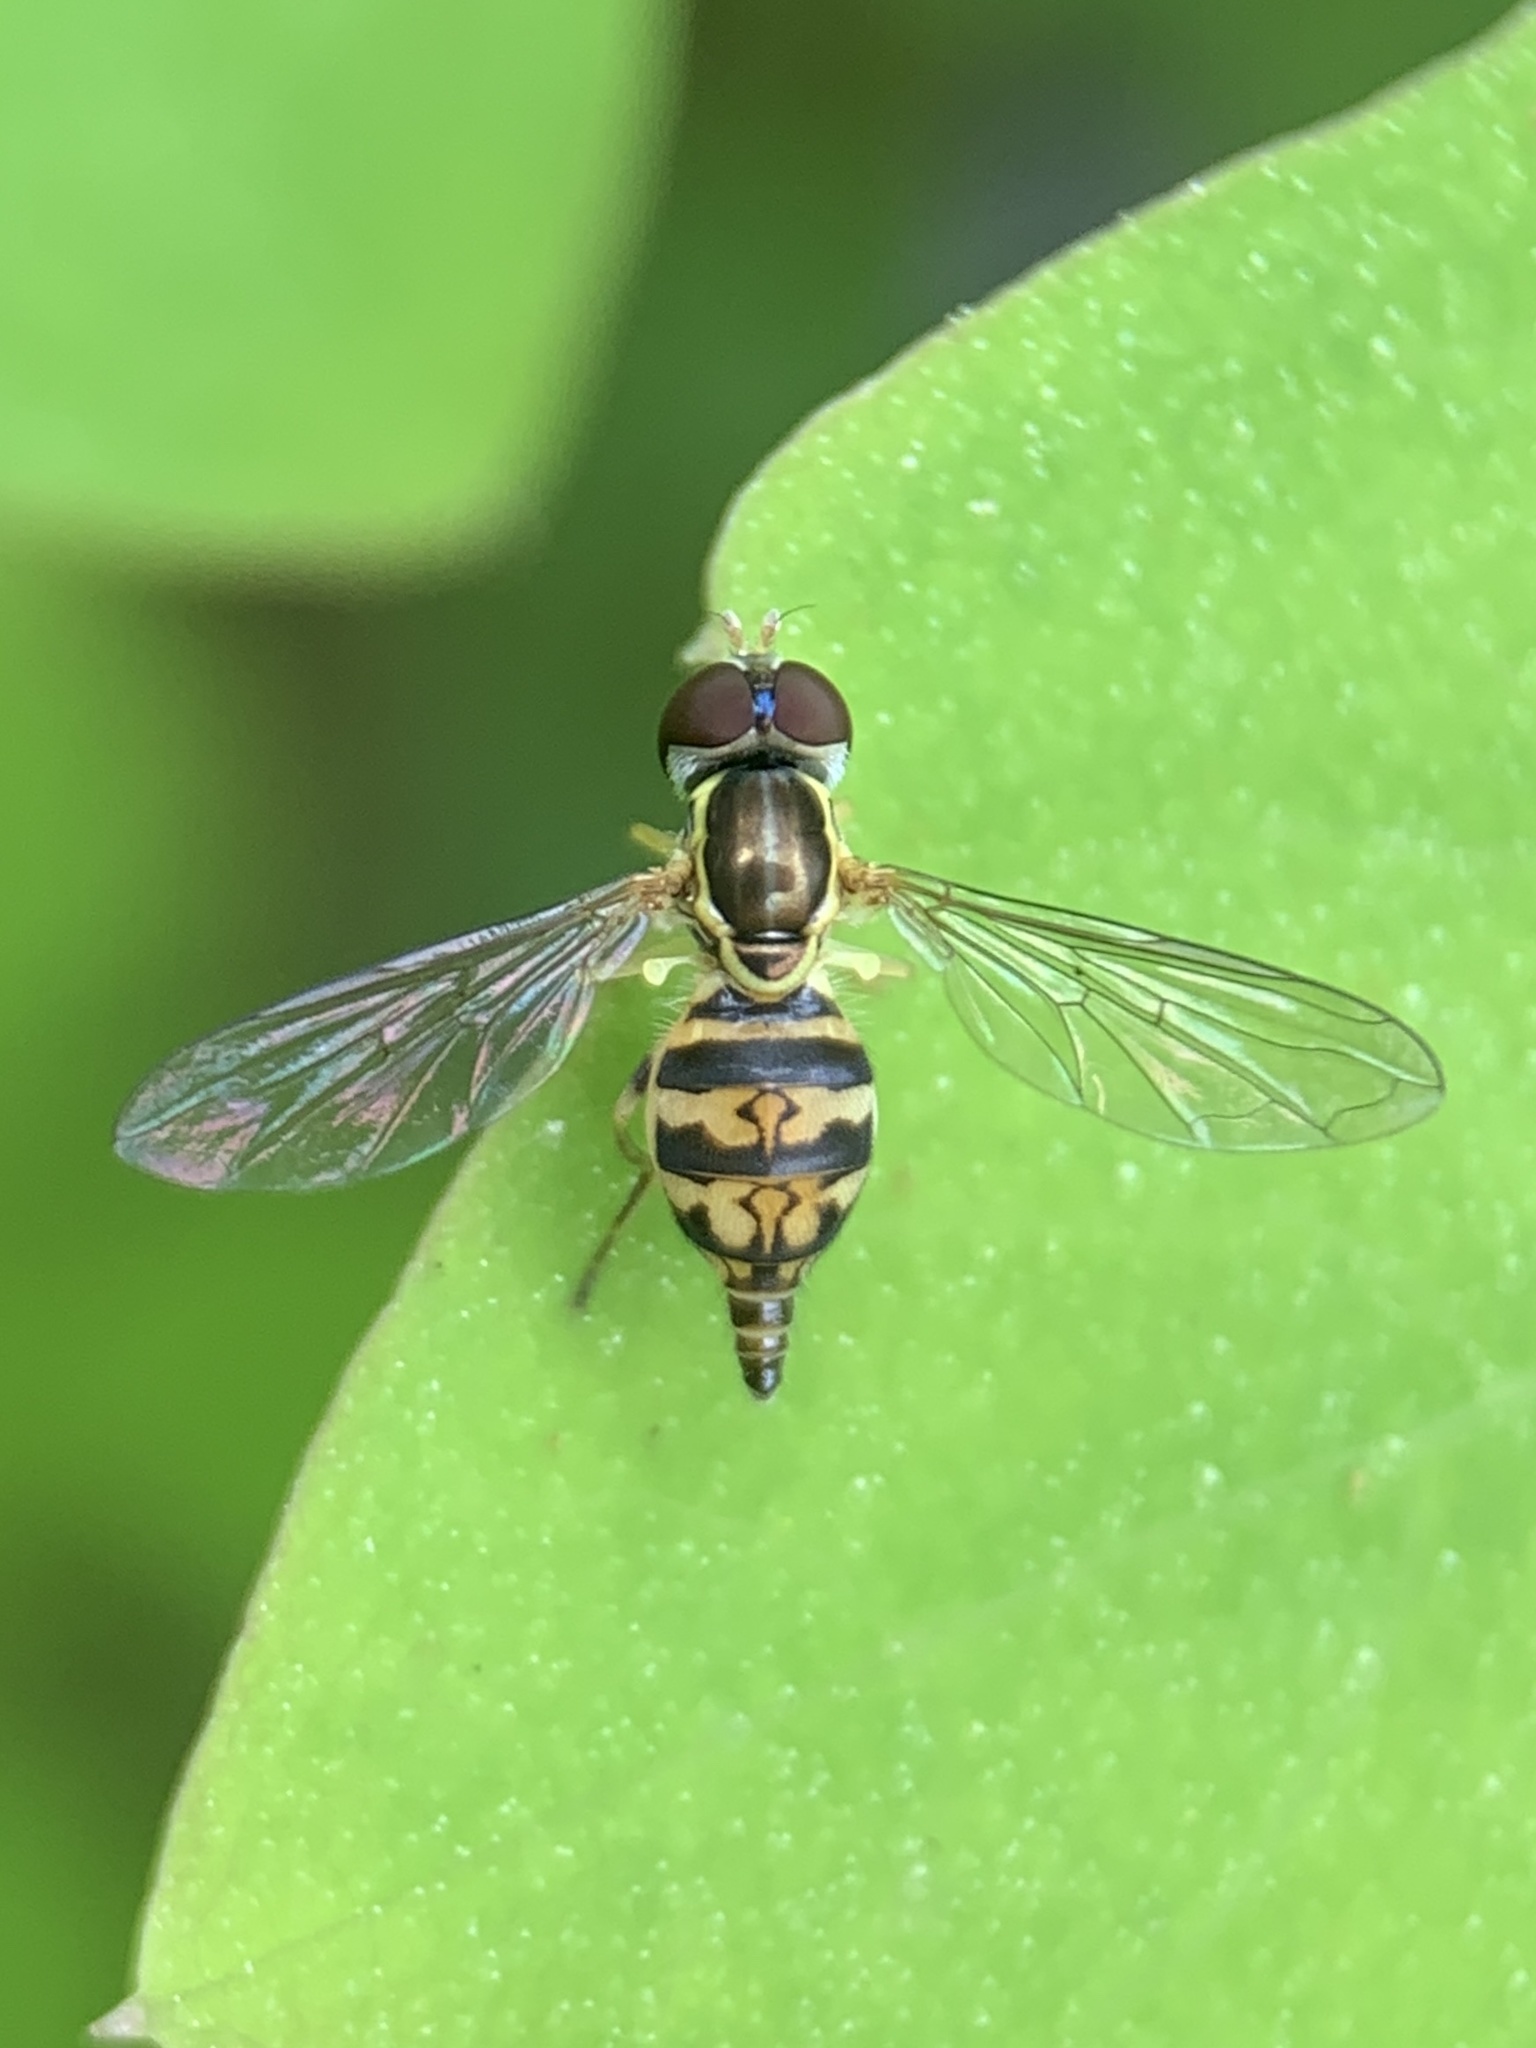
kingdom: Animalia
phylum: Arthropoda
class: Insecta
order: Diptera
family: Syrphidae
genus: Toxomerus
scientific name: Toxomerus geminatus
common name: Eastern calligrapher
